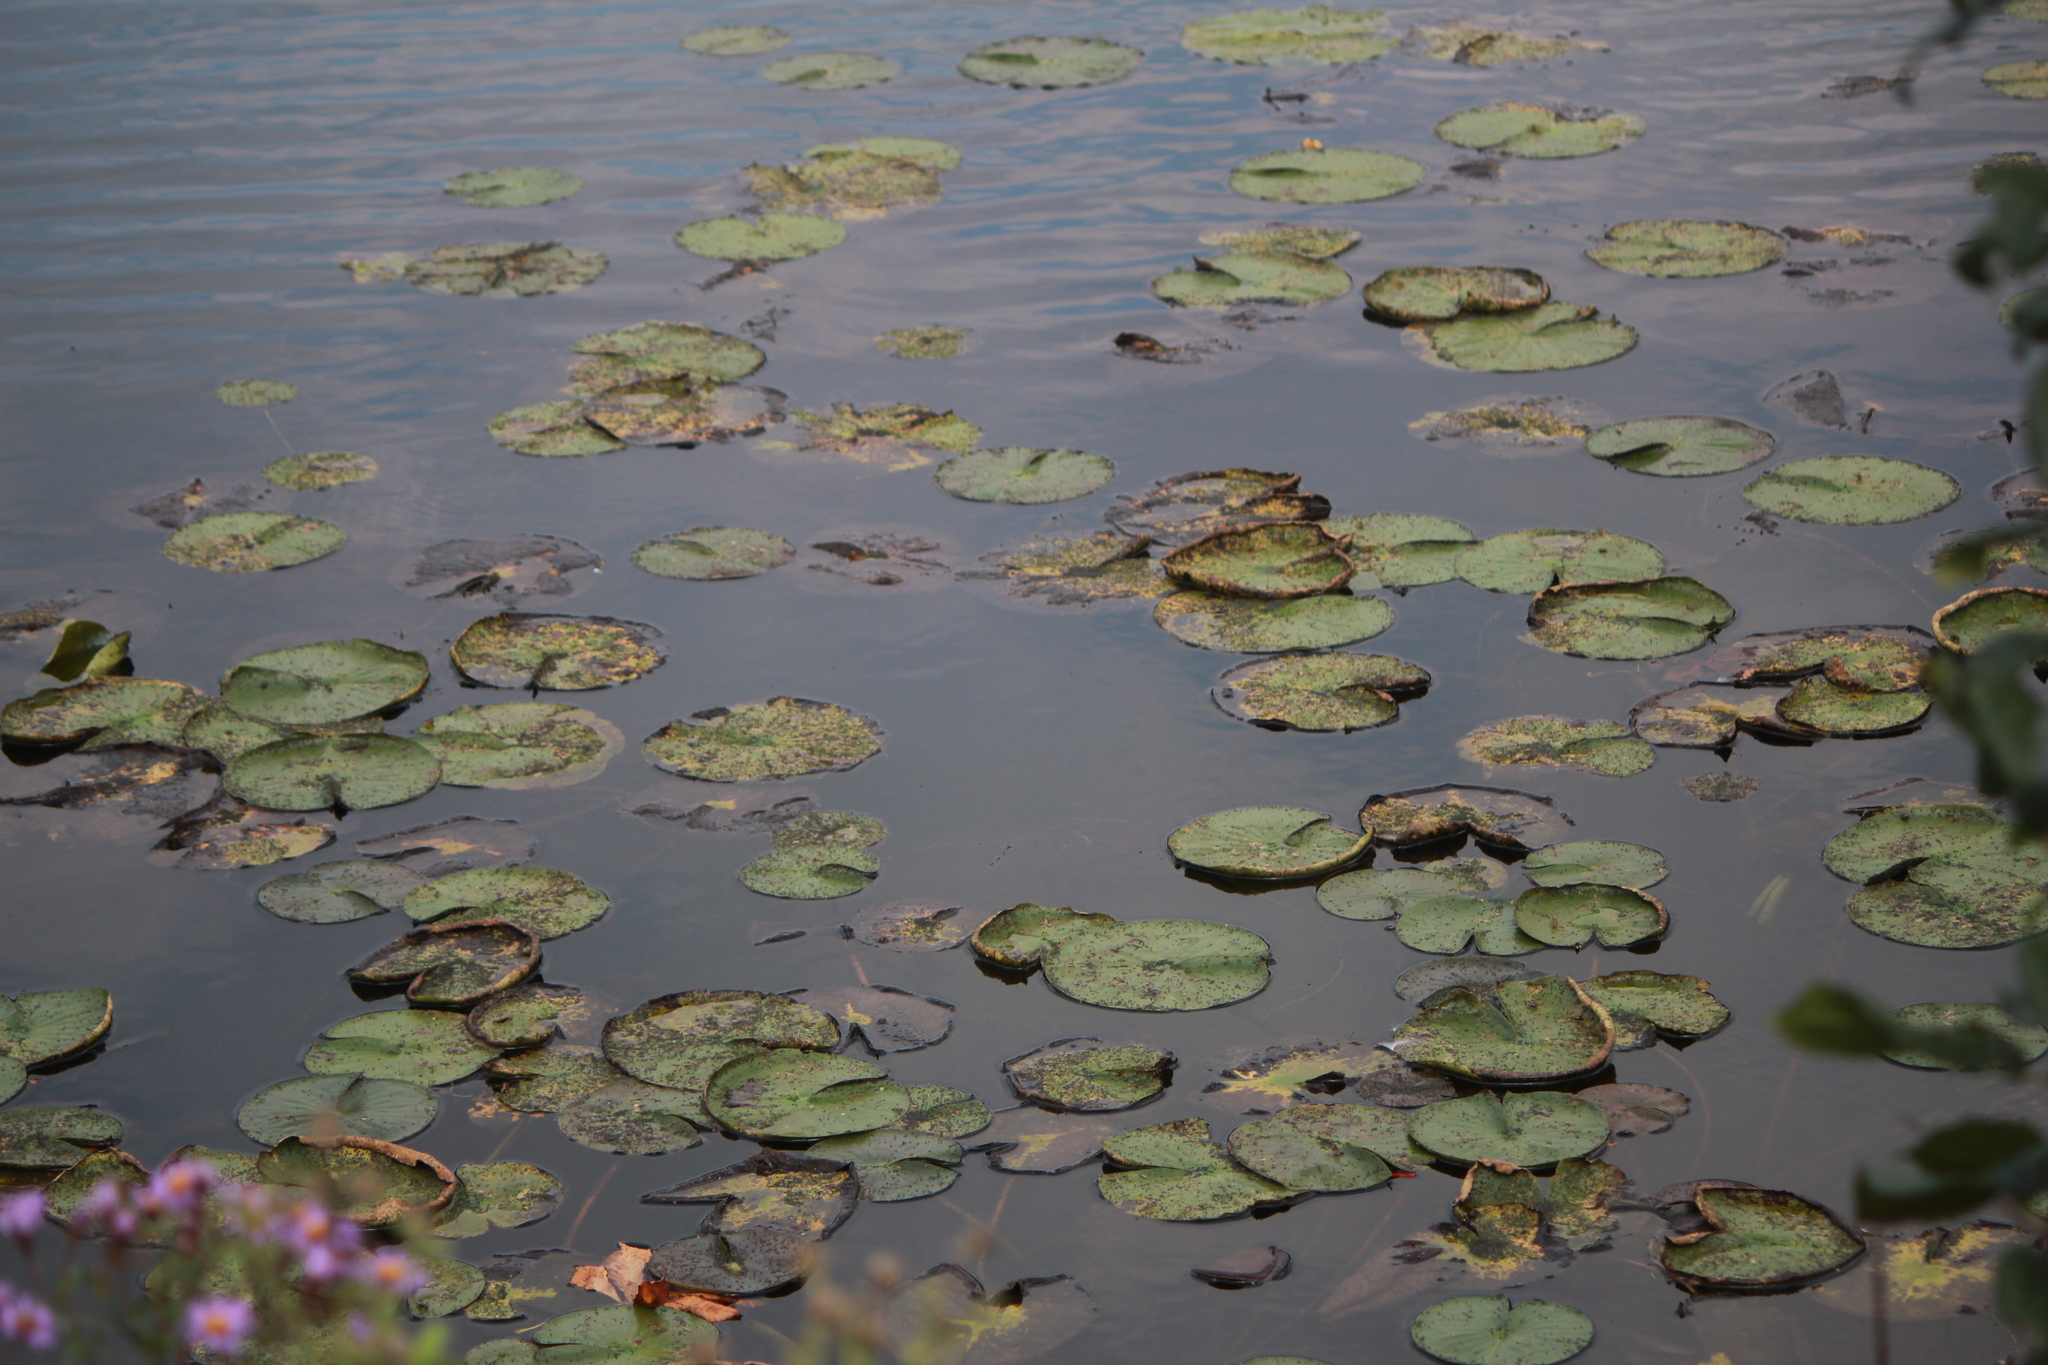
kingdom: Plantae
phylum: Tracheophyta
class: Magnoliopsida
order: Nymphaeales
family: Nymphaeaceae
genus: Nymphaea
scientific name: Nymphaea odorata
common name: Fragrant water-lily
